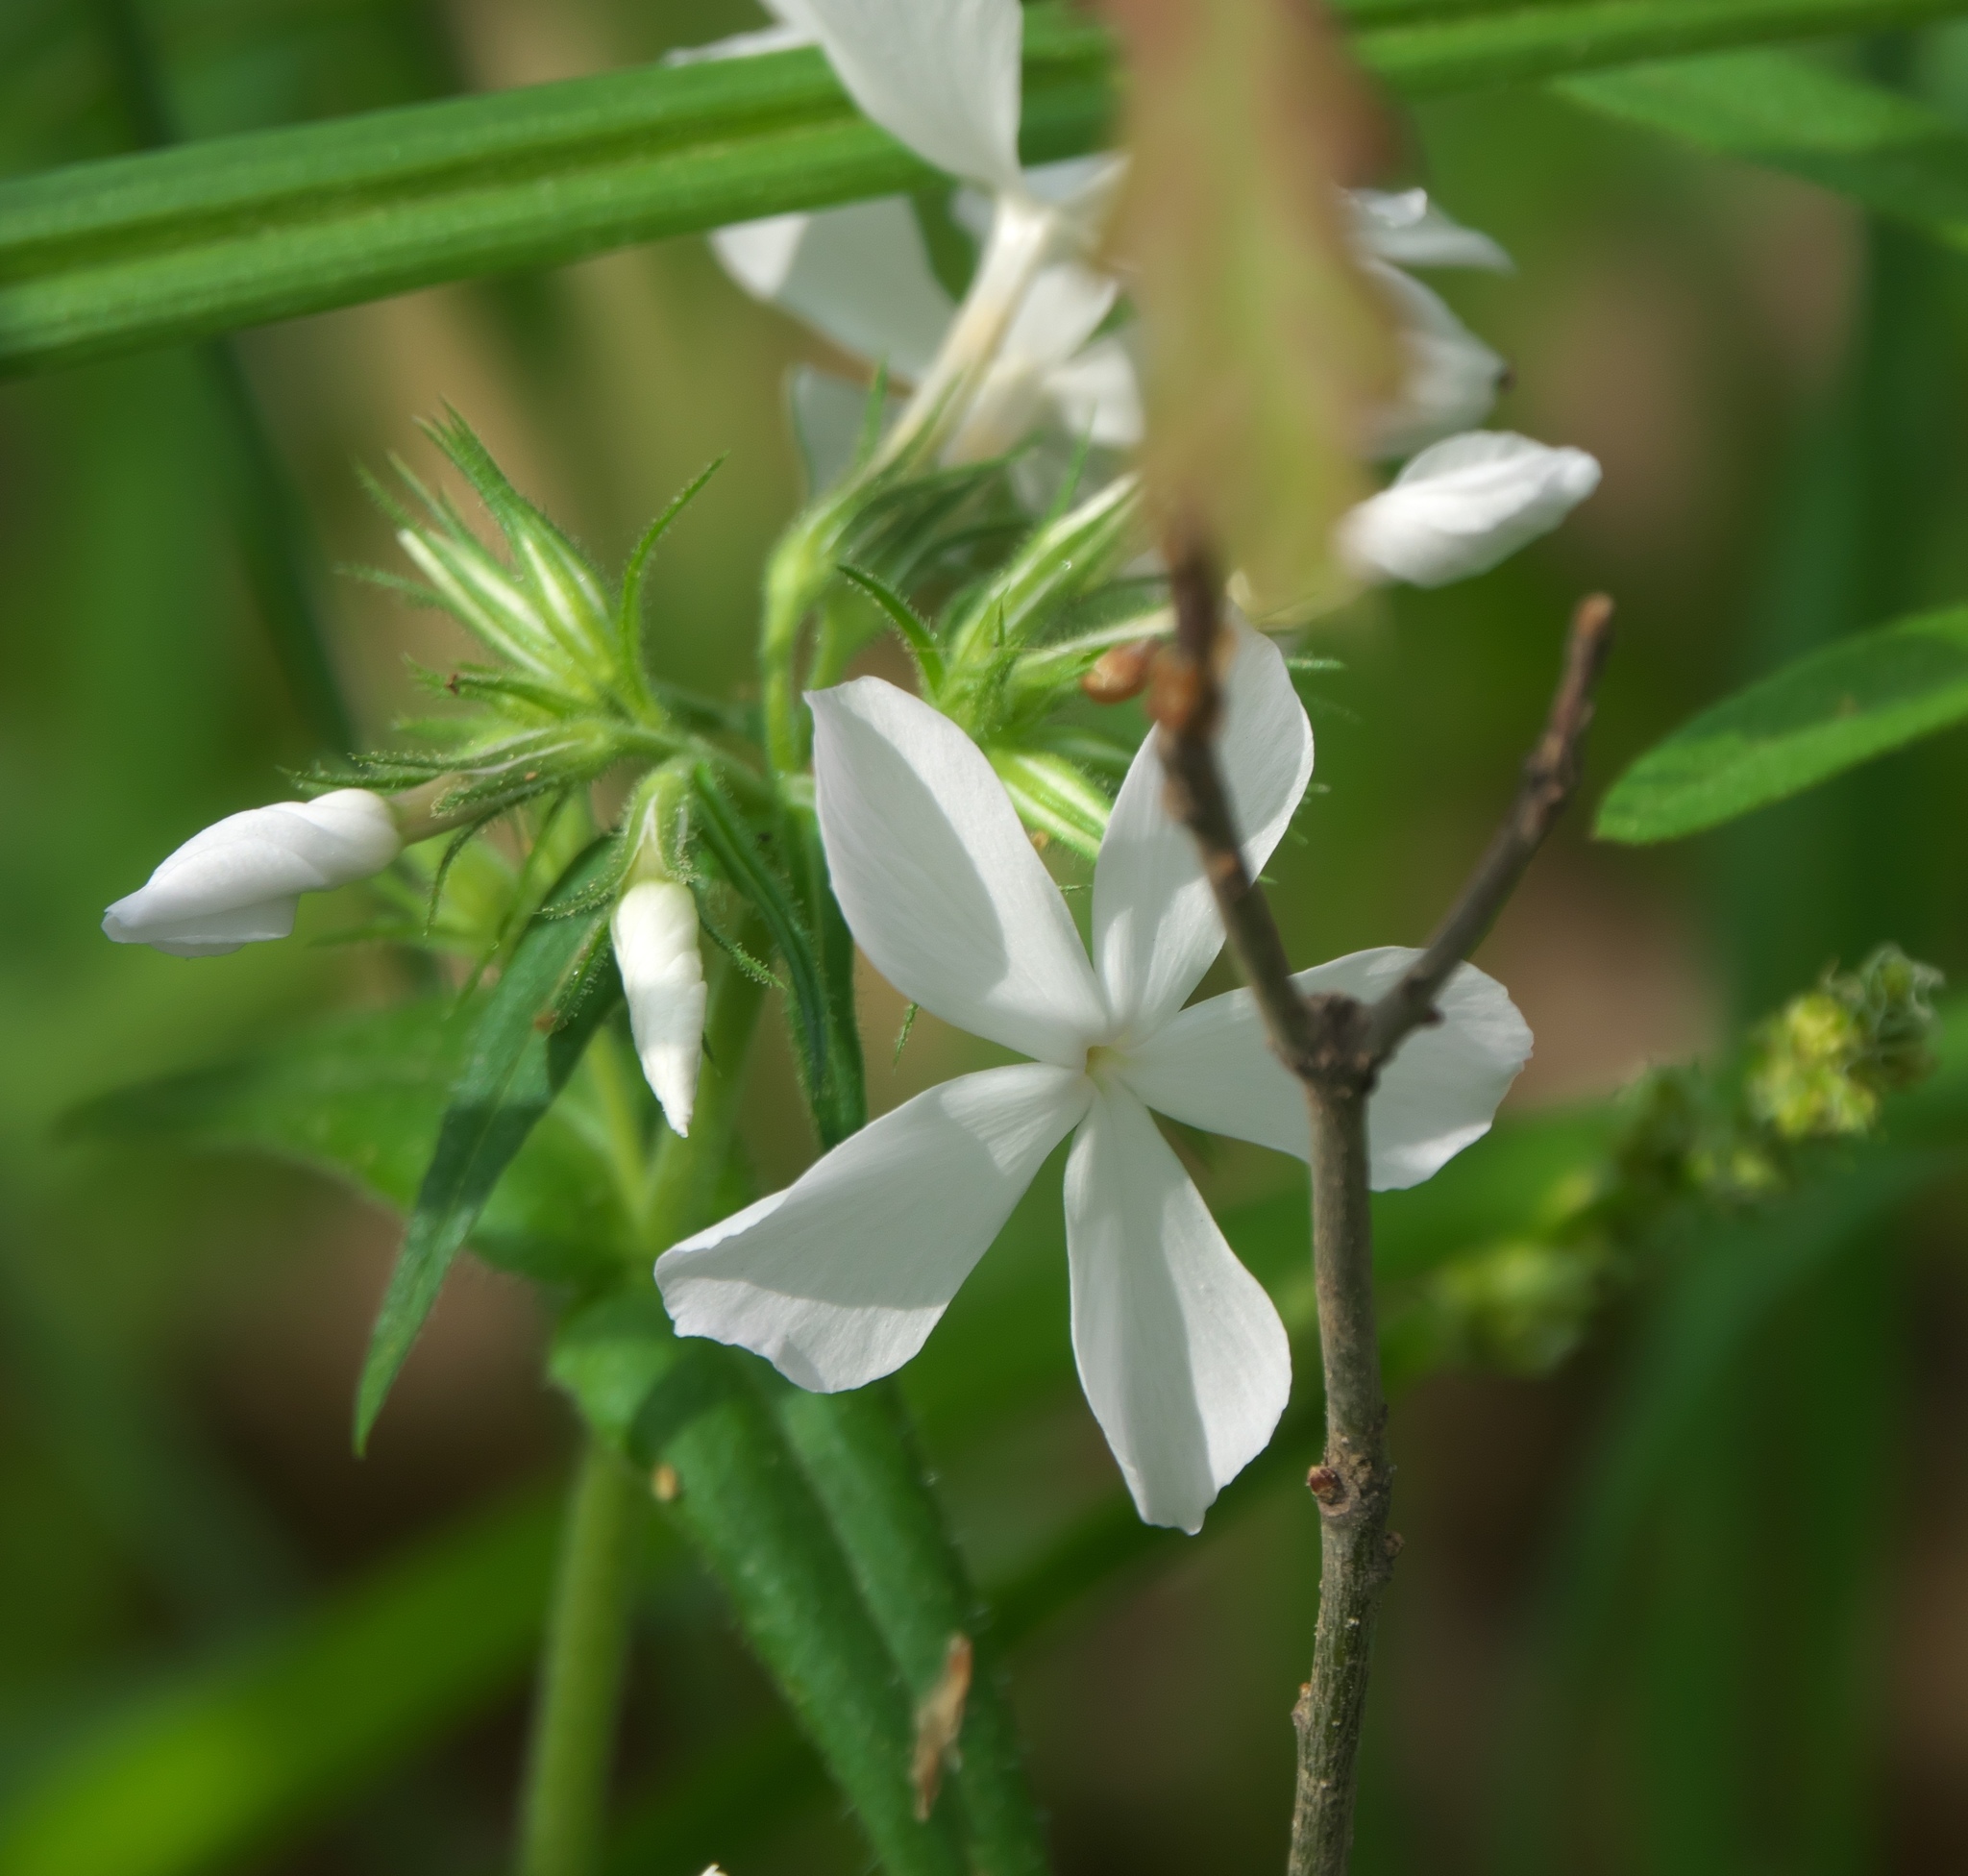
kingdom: Plantae
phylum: Tracheophyta
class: Magnoliopsida
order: Ericales
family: Polemoniaceae
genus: Phlox
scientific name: Phlox divaricata
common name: Blue phlox
